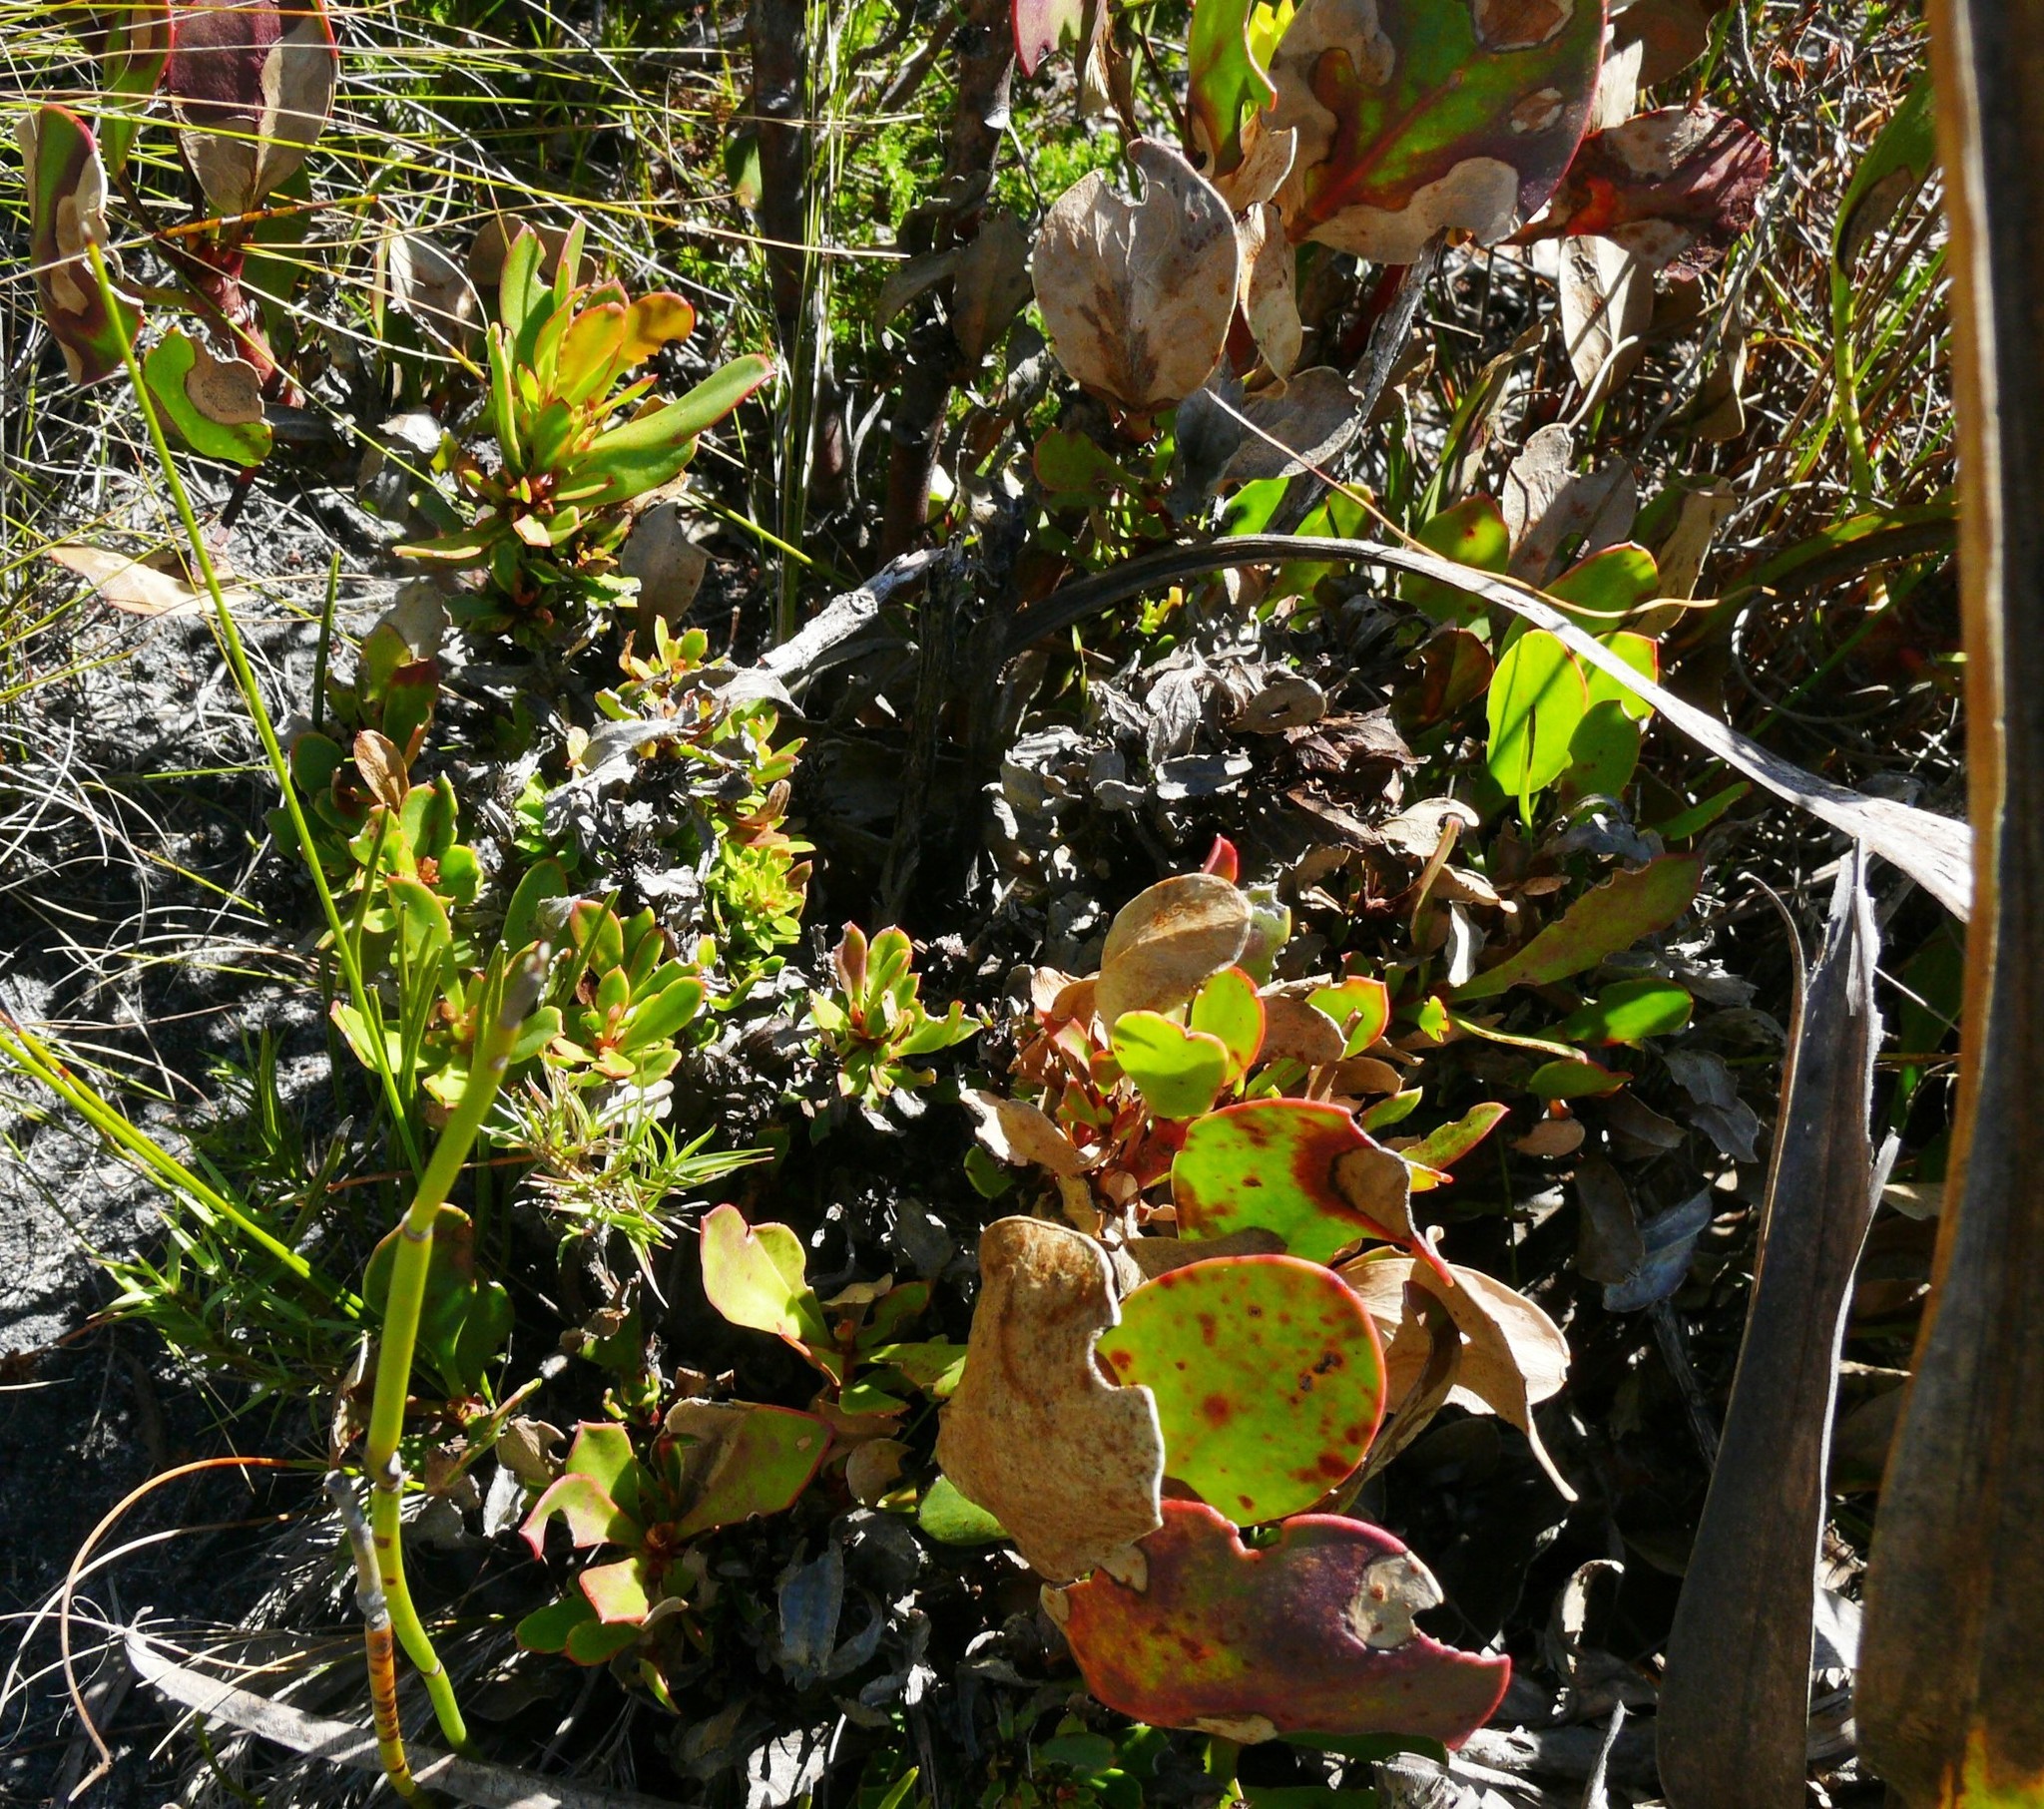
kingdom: Bacteria
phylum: Firmicutes
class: Bacilli
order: Acholeplasmatales
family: Acholeplasmataceae
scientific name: Acholeplasmataceae
